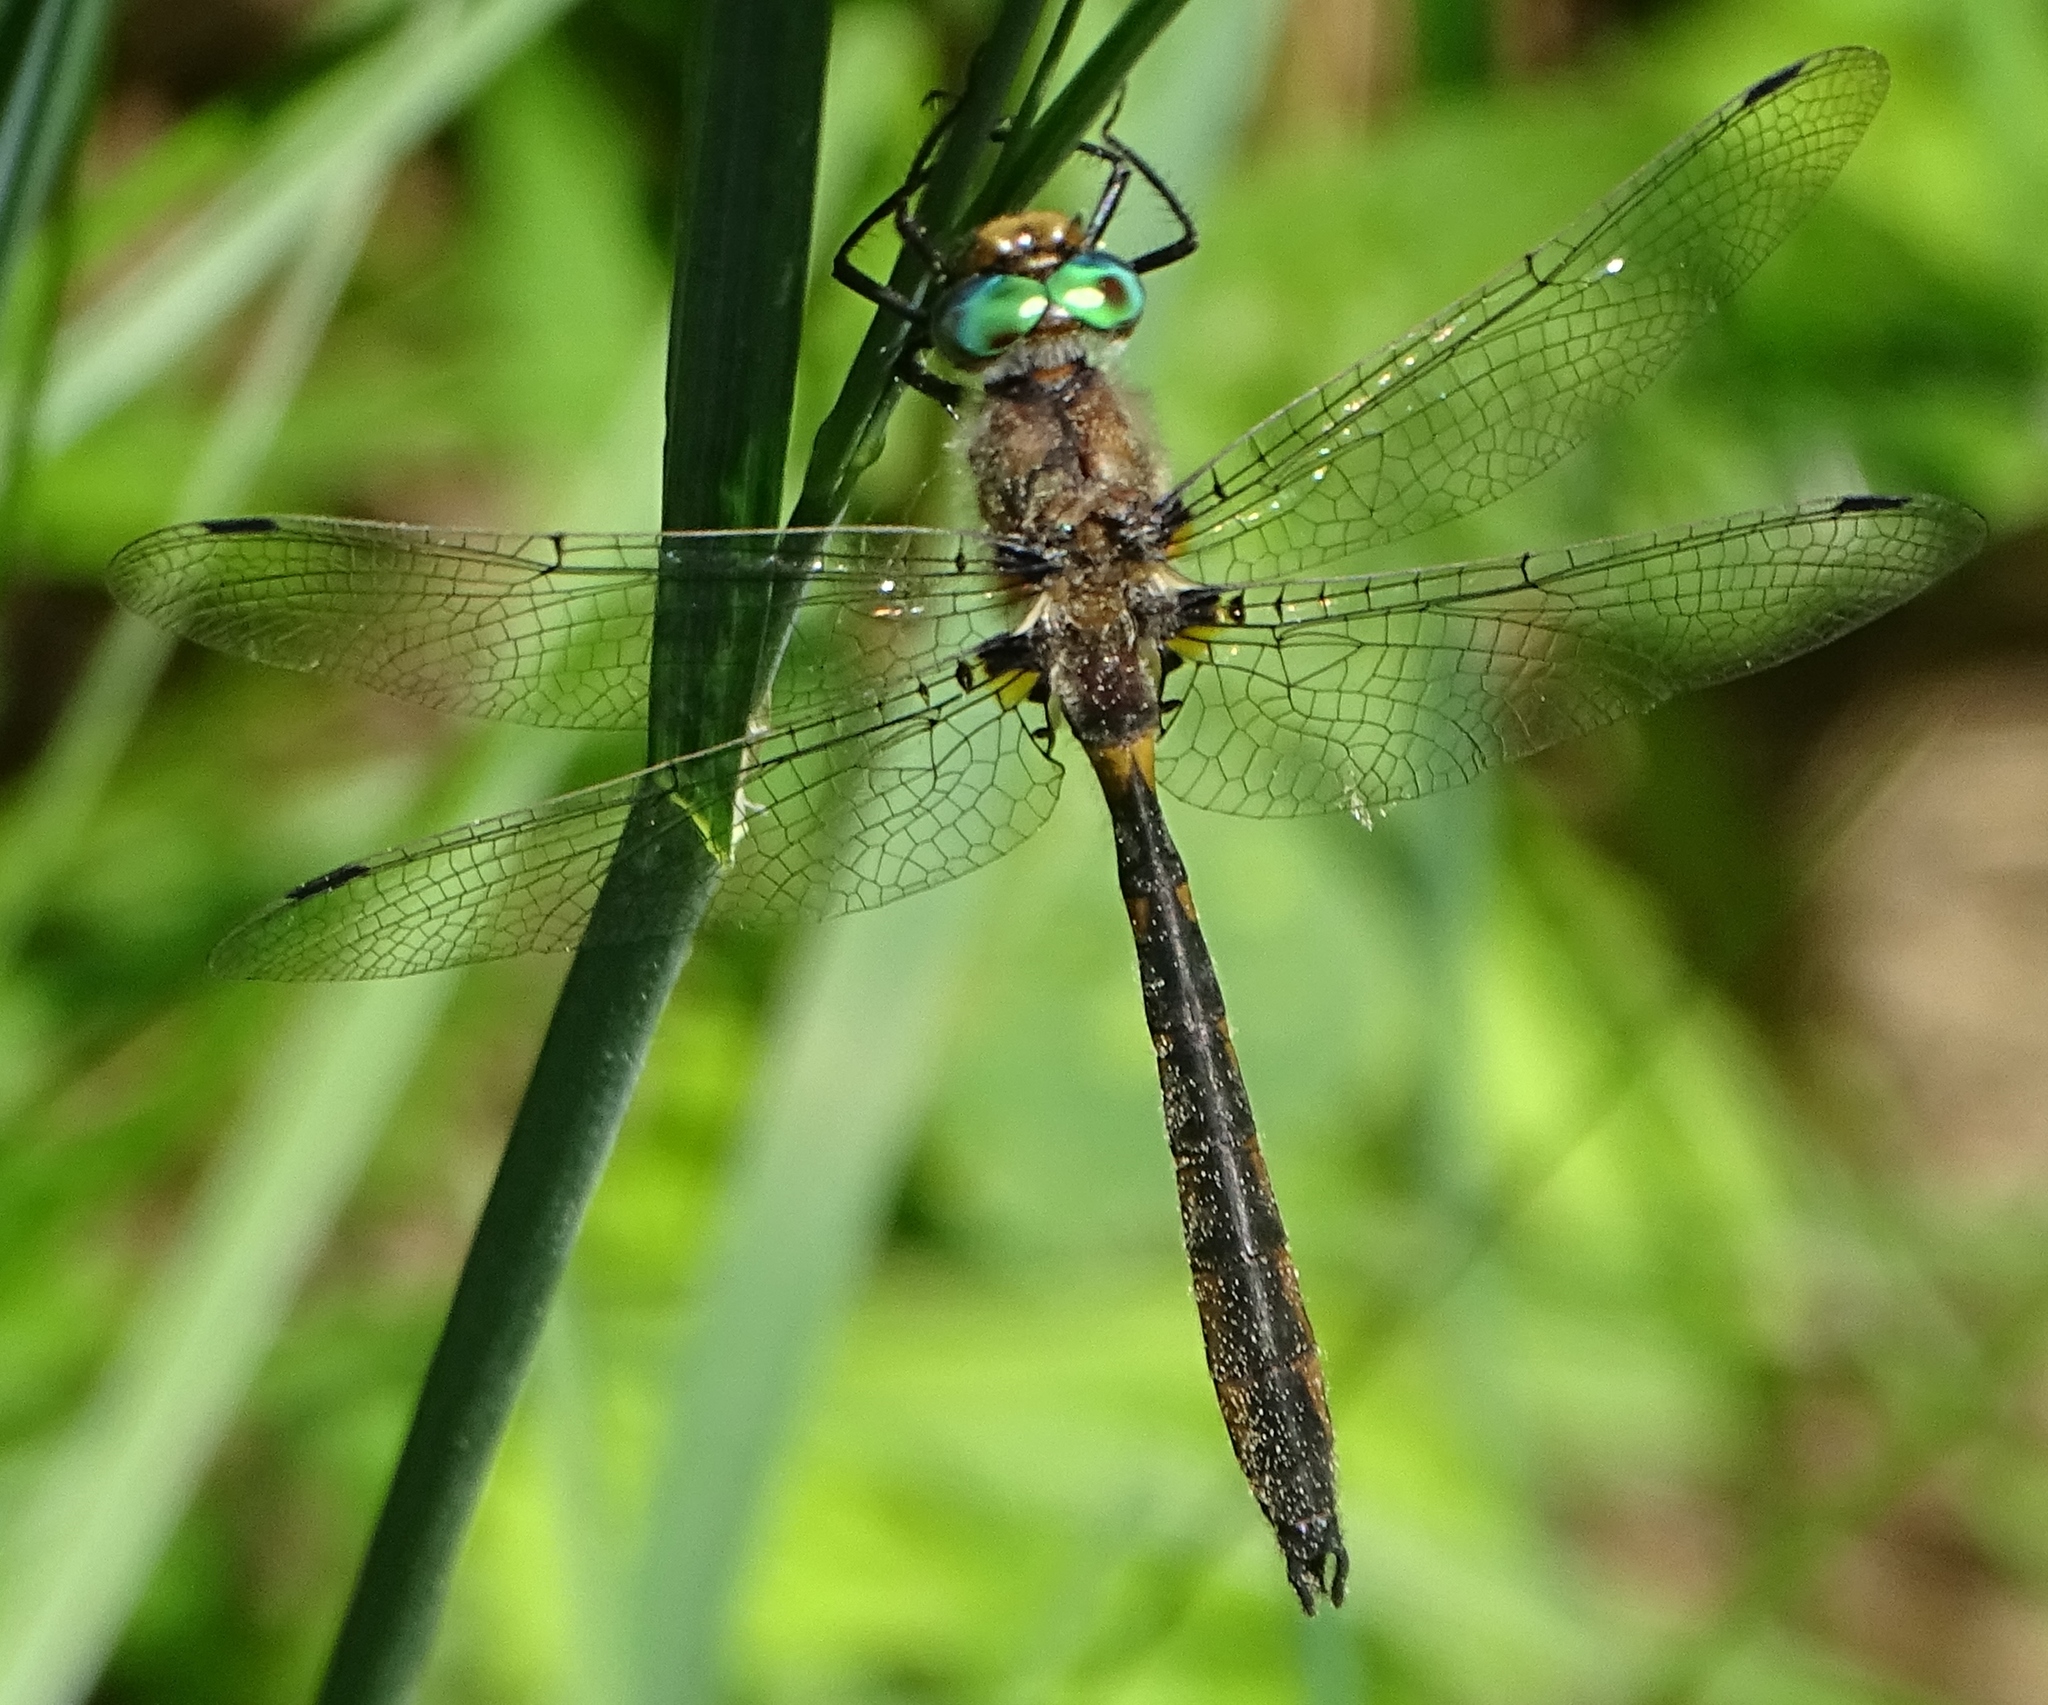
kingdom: Animalia
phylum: Arthropoda
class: Insecta
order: Odonata
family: Corduliidae
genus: Helocordulia
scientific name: Helocordulia uhleri
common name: Uhler's sundragon
